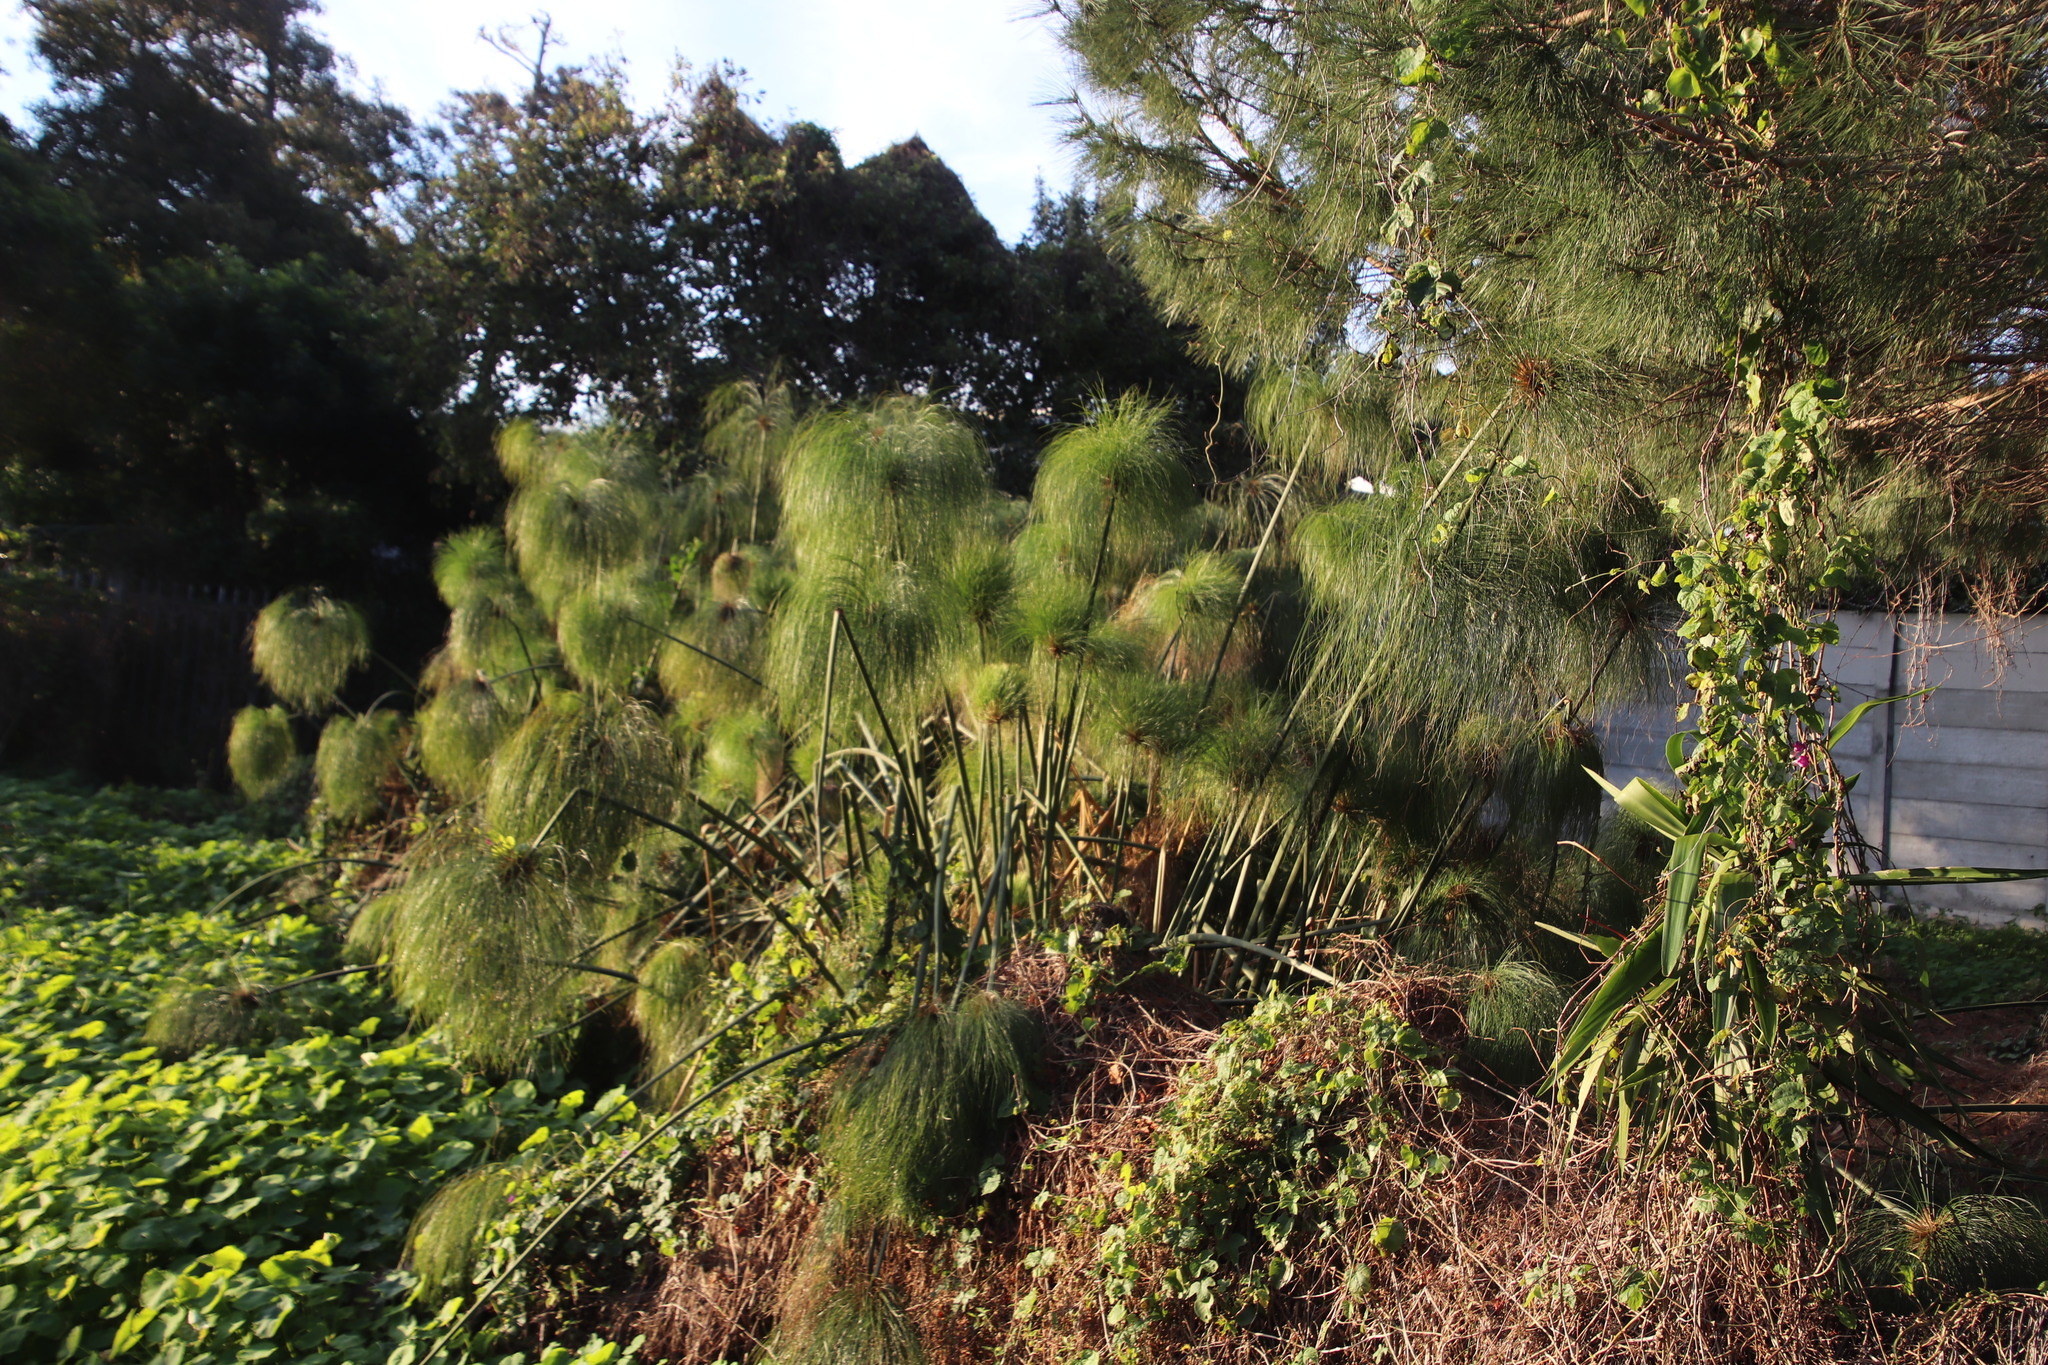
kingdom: Plantae
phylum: Tracheophyta
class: Liliopsida
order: Poales
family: Cyperaceae
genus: Cyperus
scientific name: Cyperus papyrus
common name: Papyrus
